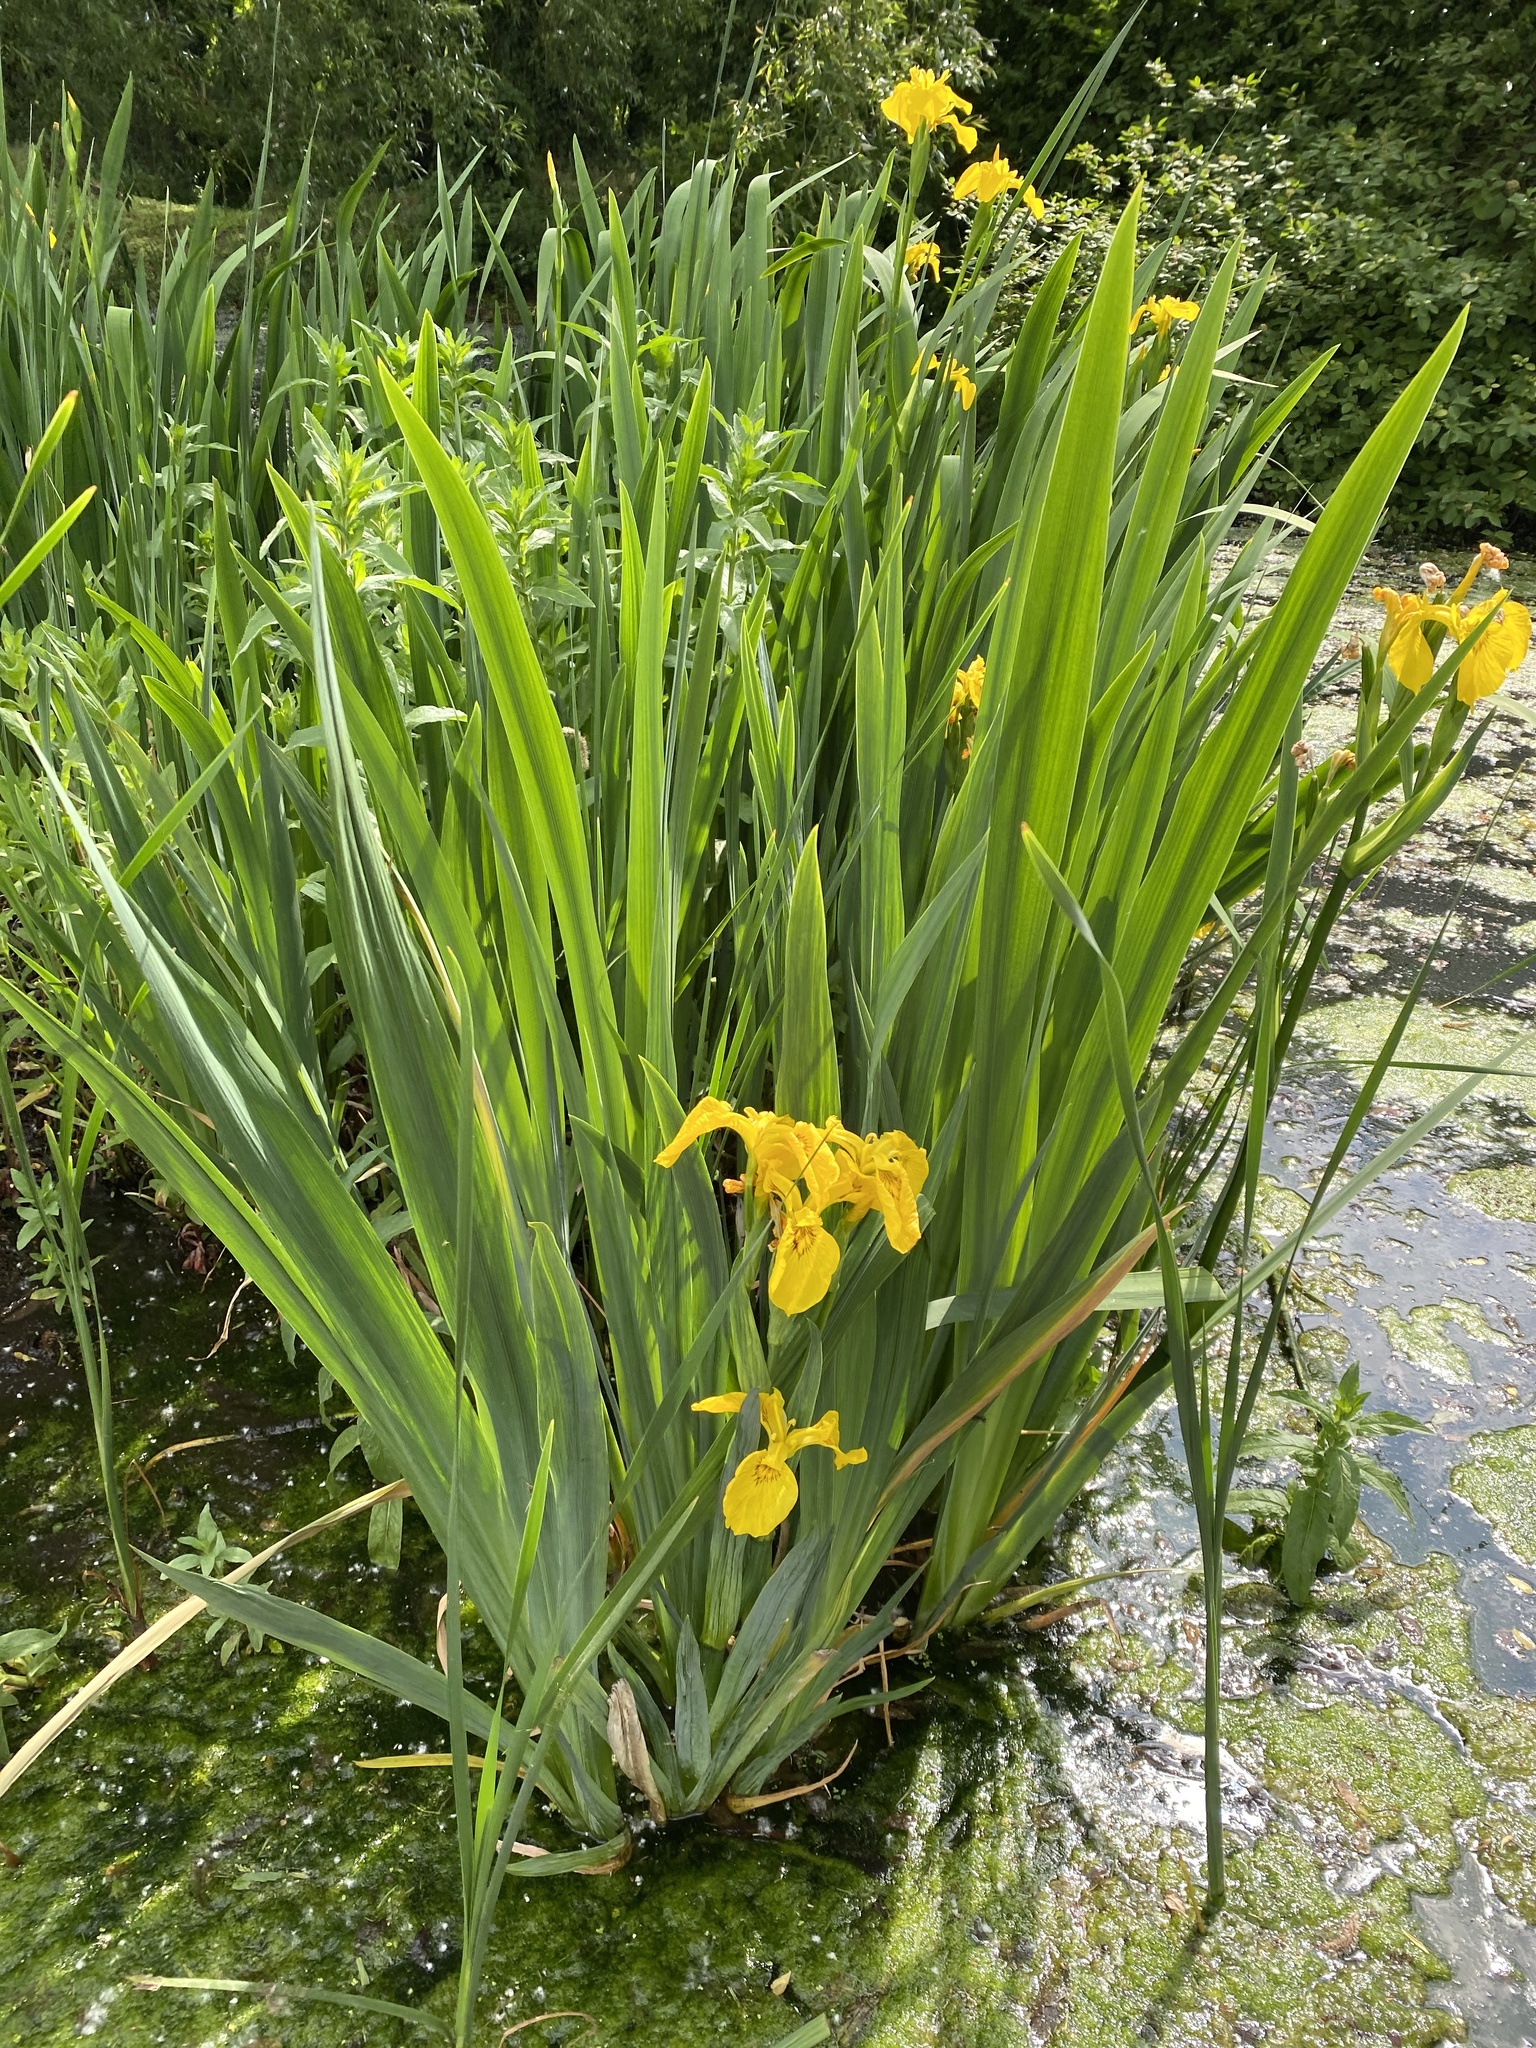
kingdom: Plantae
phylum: Tracheophyta
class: Liliopsida
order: Asparagales
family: Iridaceae
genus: Iris
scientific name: Iris pseudacorus
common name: Yellow flag
